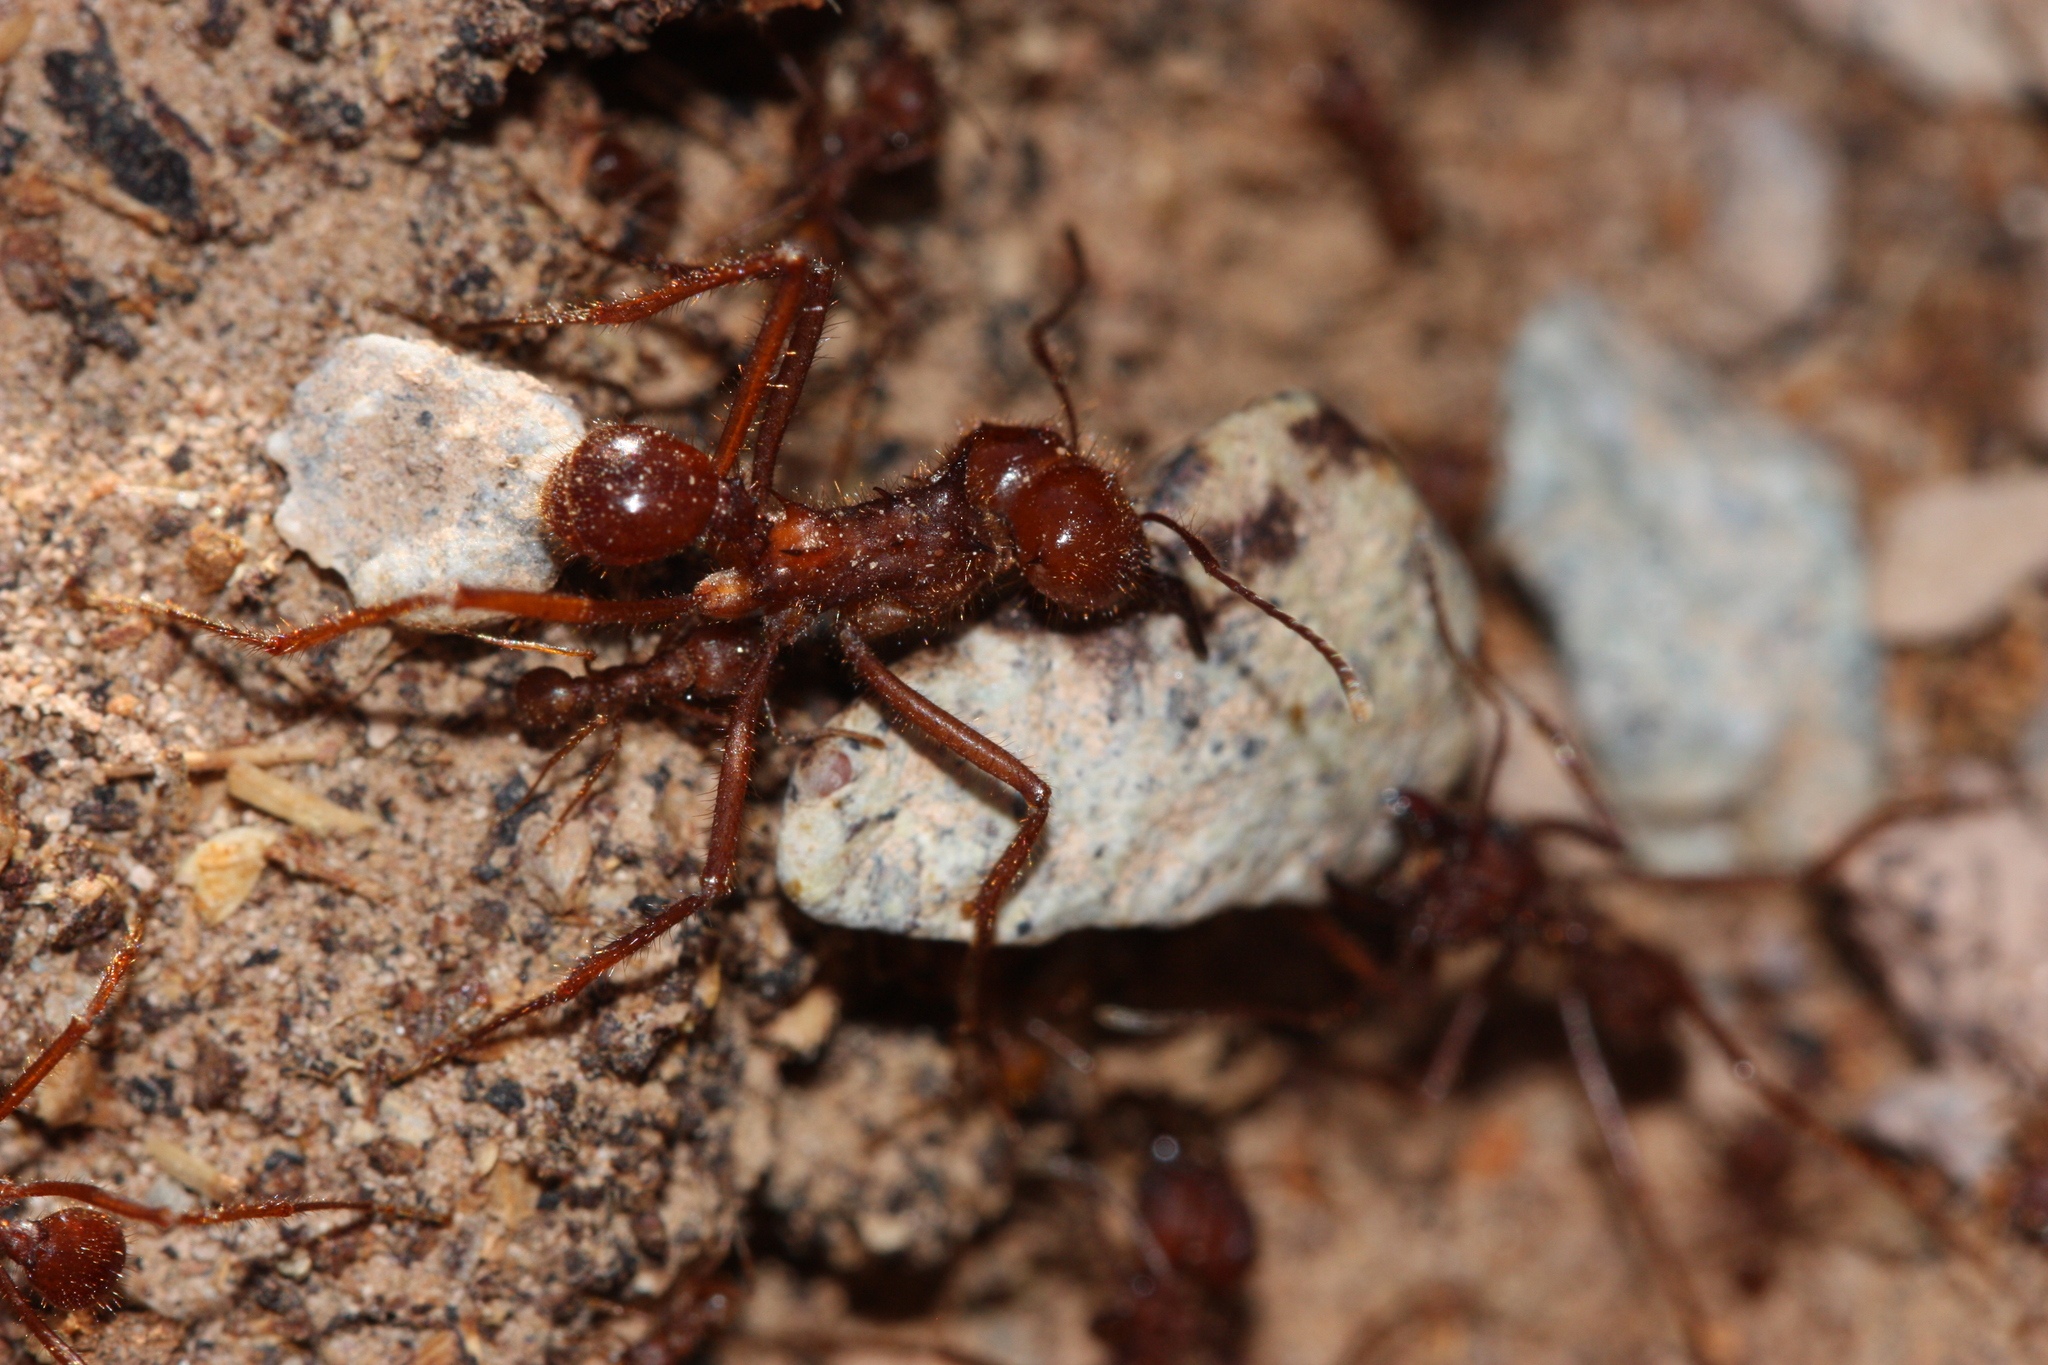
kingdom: Animalia
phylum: Arthropoda
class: Insecta
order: Hymenoptera
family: Formicidae
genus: Atta
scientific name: Atta mexicana
